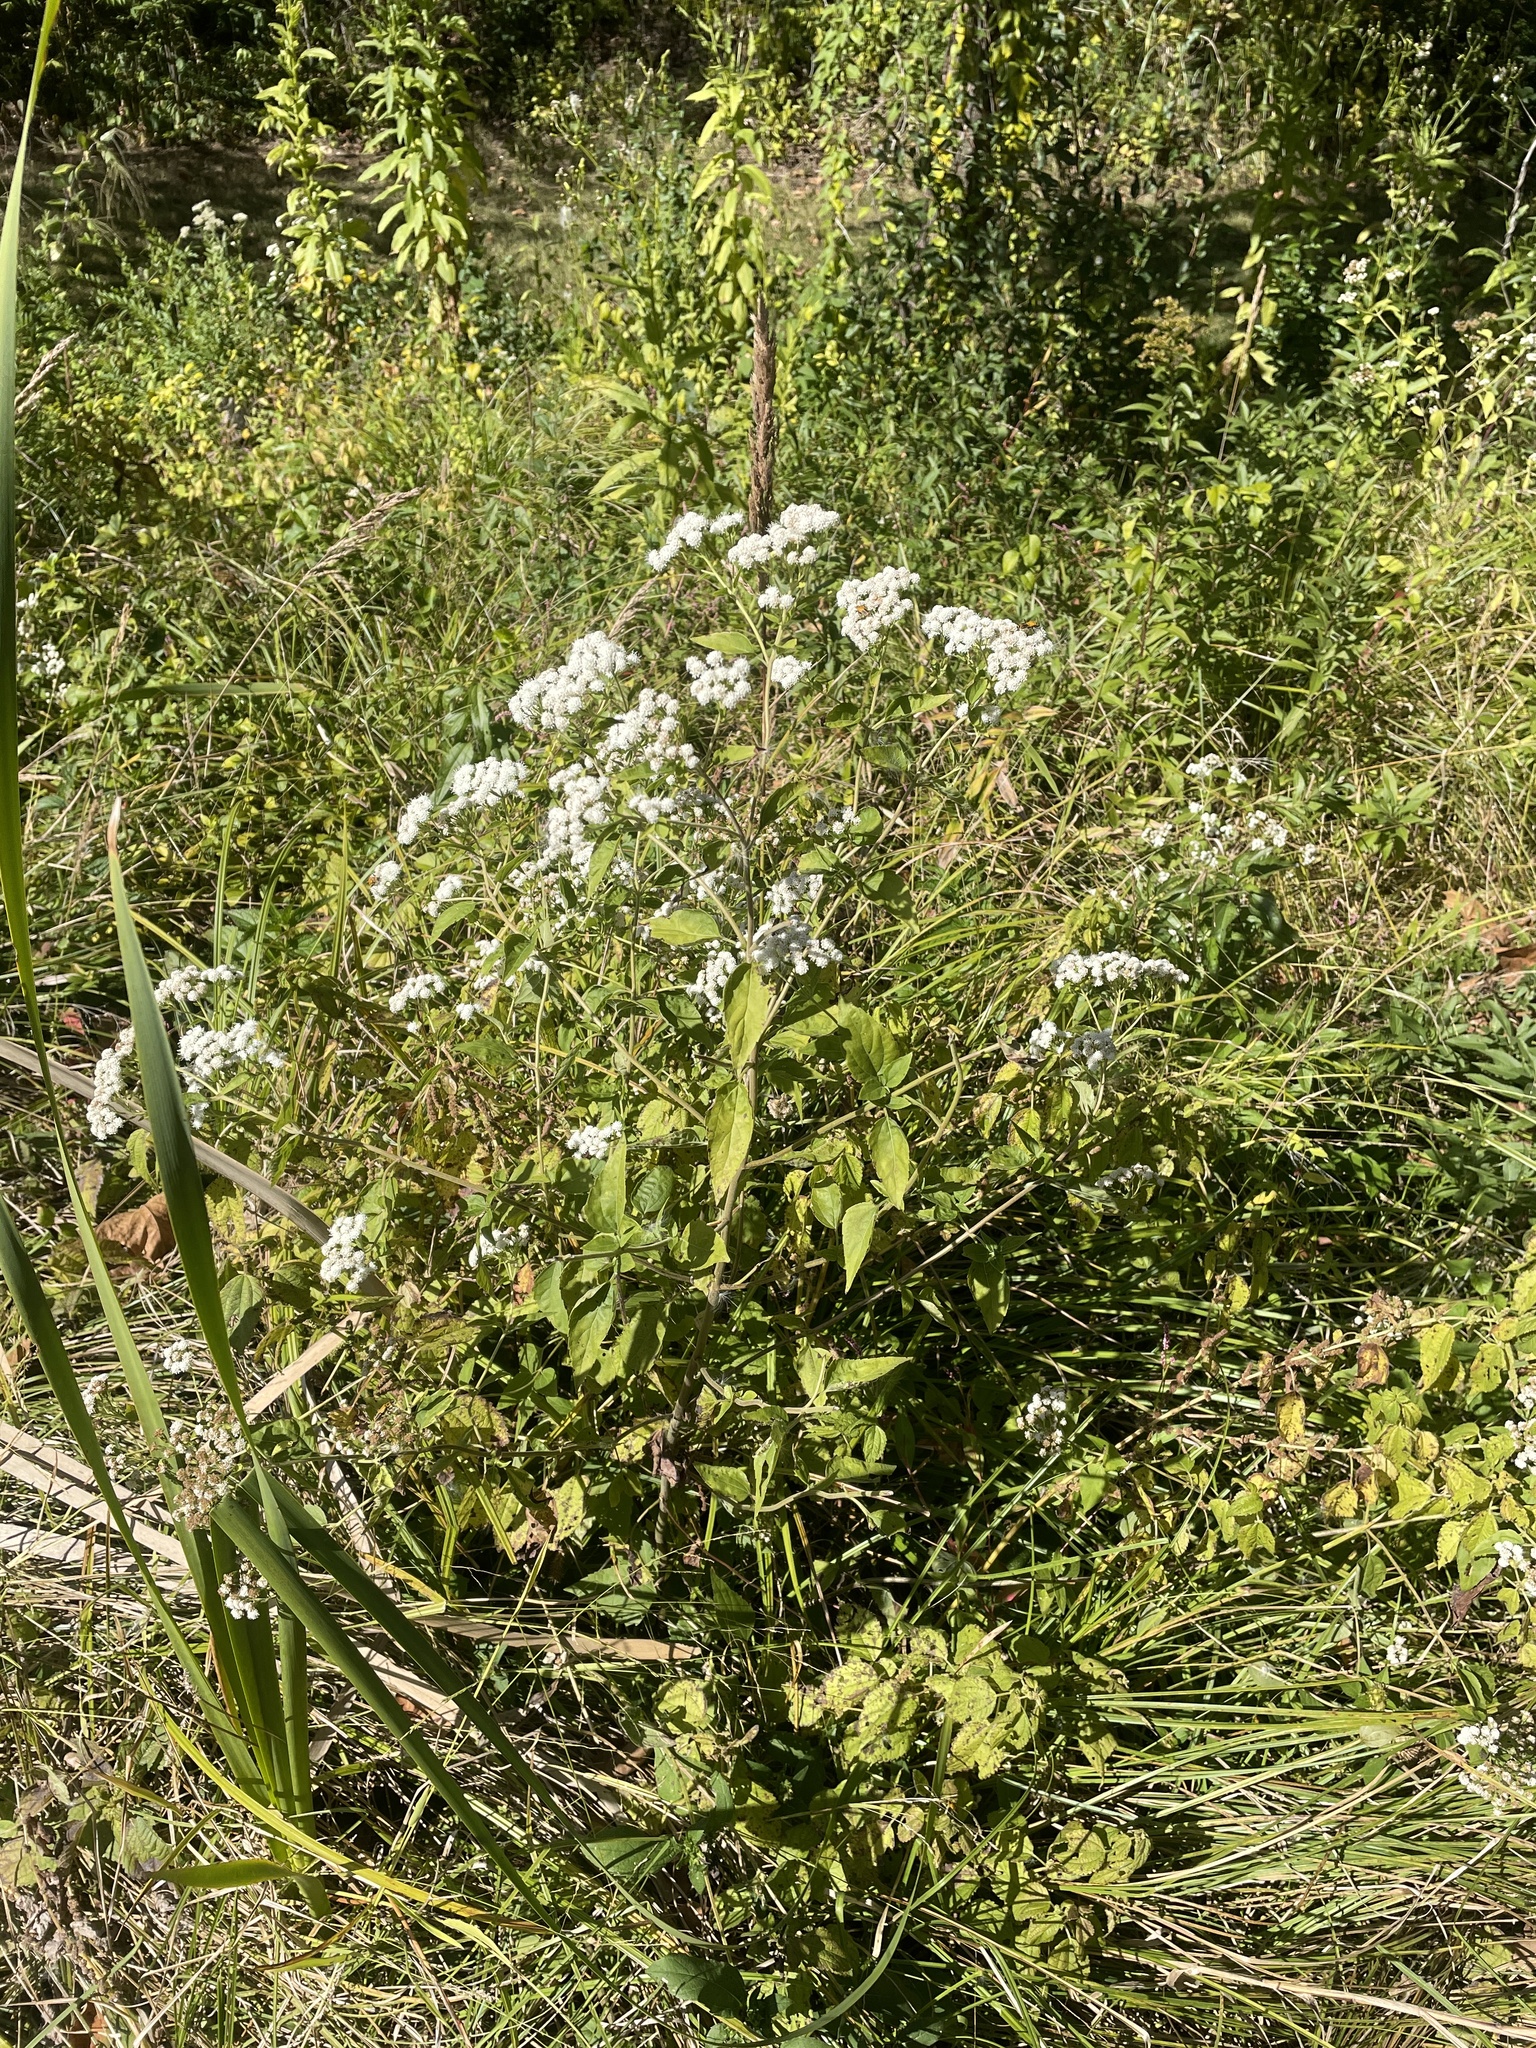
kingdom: Plantae
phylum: Tracheophyta
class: Magnoliopsida
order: Asterales
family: Asteraceae
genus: Ageratina
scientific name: Ageratina altissima
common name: White snakeroot
